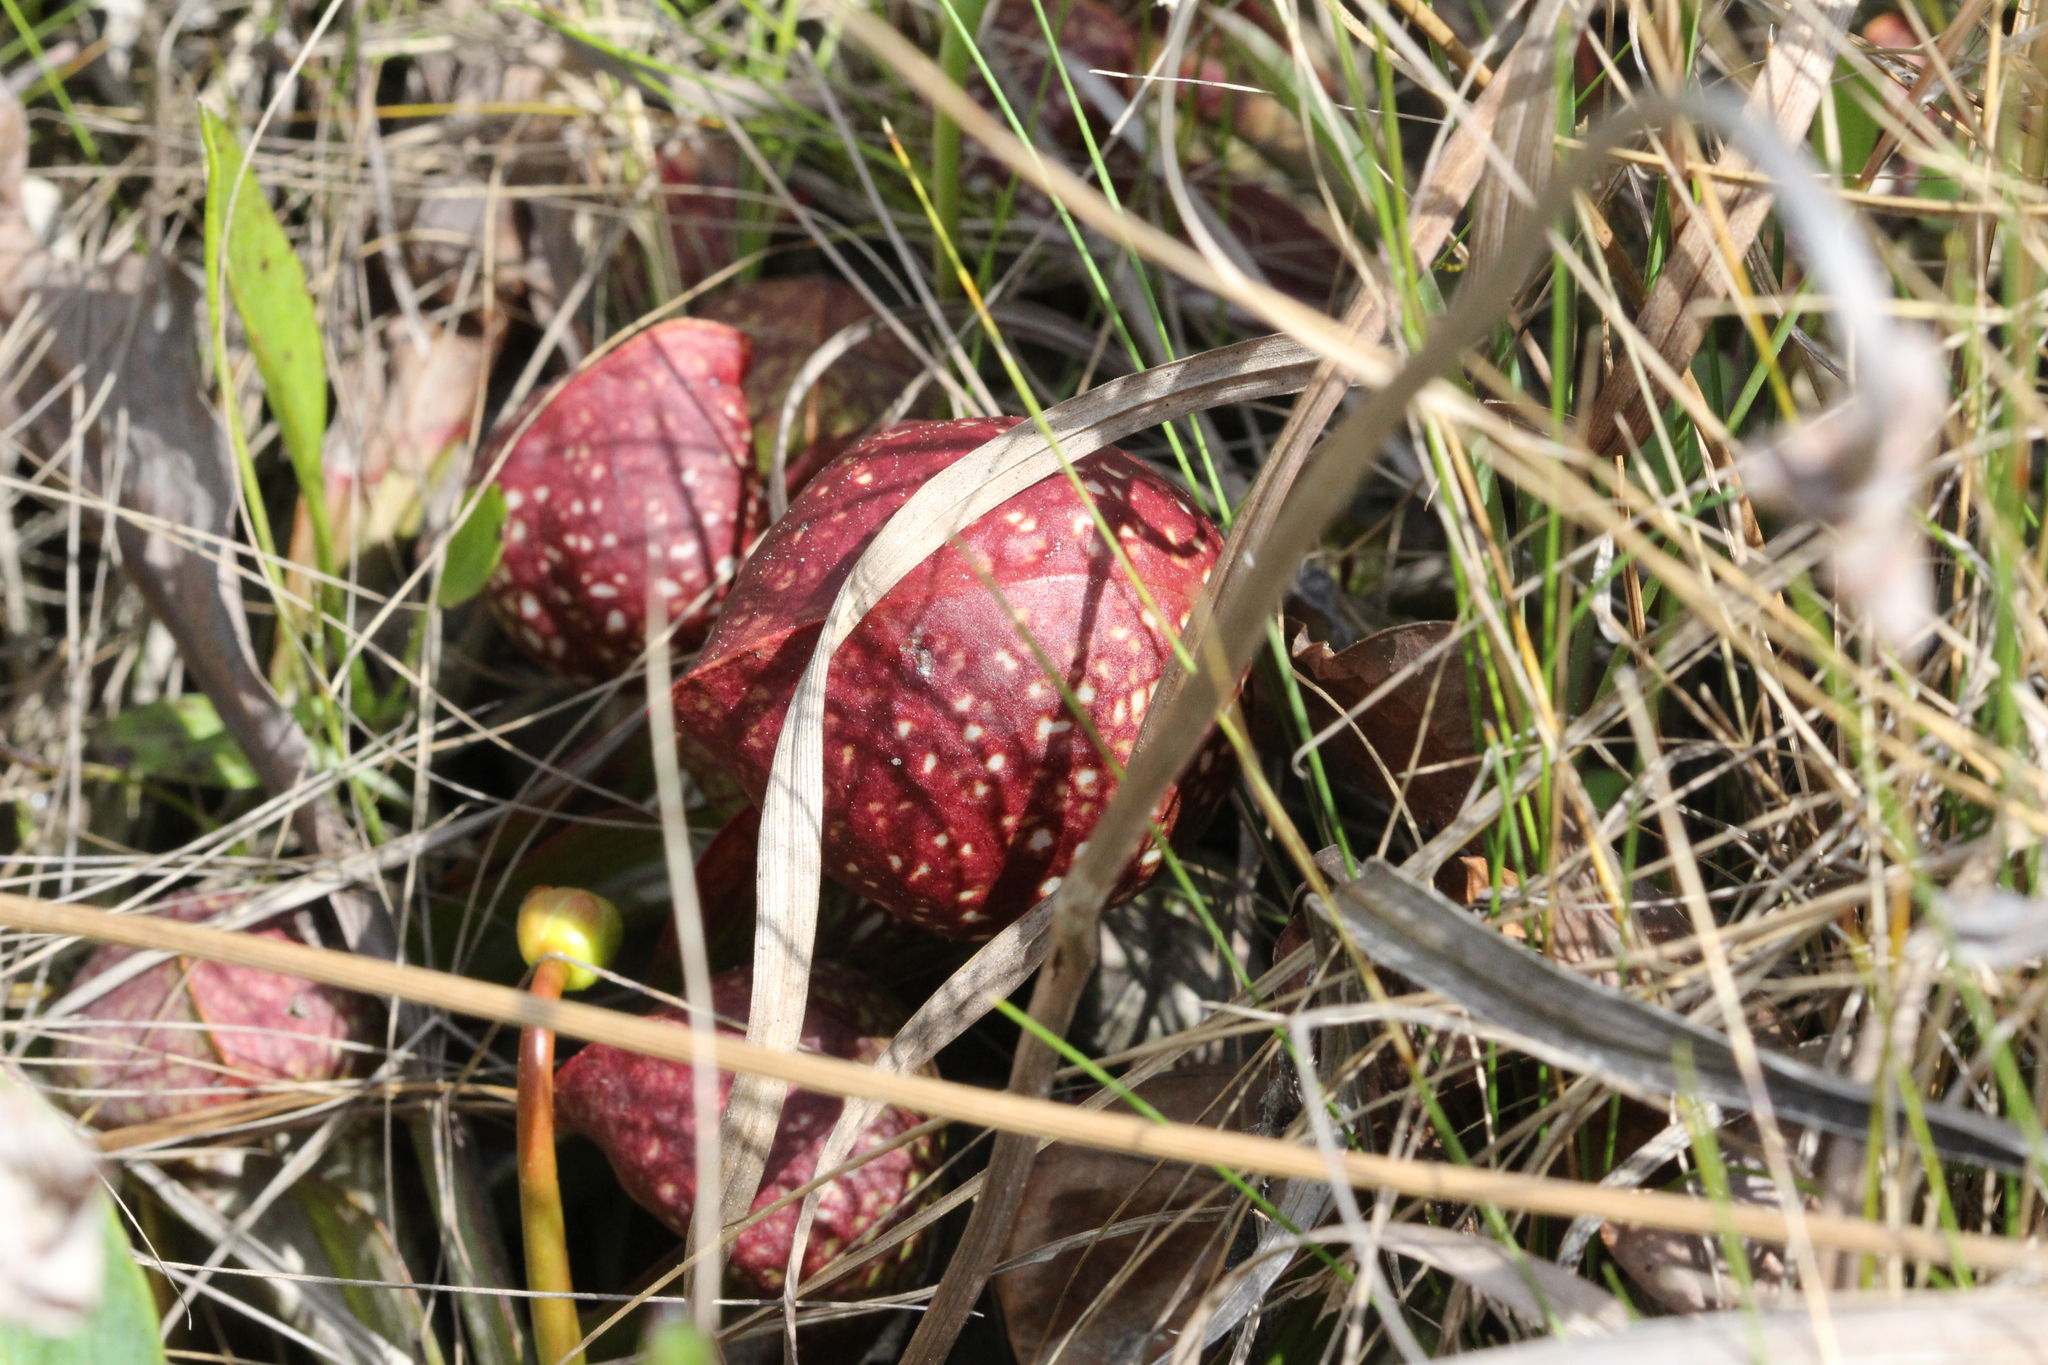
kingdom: Plantae
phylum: Tracheophyta
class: Magnoliopsida
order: Ericales
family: Sarraceniaceae
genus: Sarracenia
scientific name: Sarracenia psittacina
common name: Parrot pitcherplant
